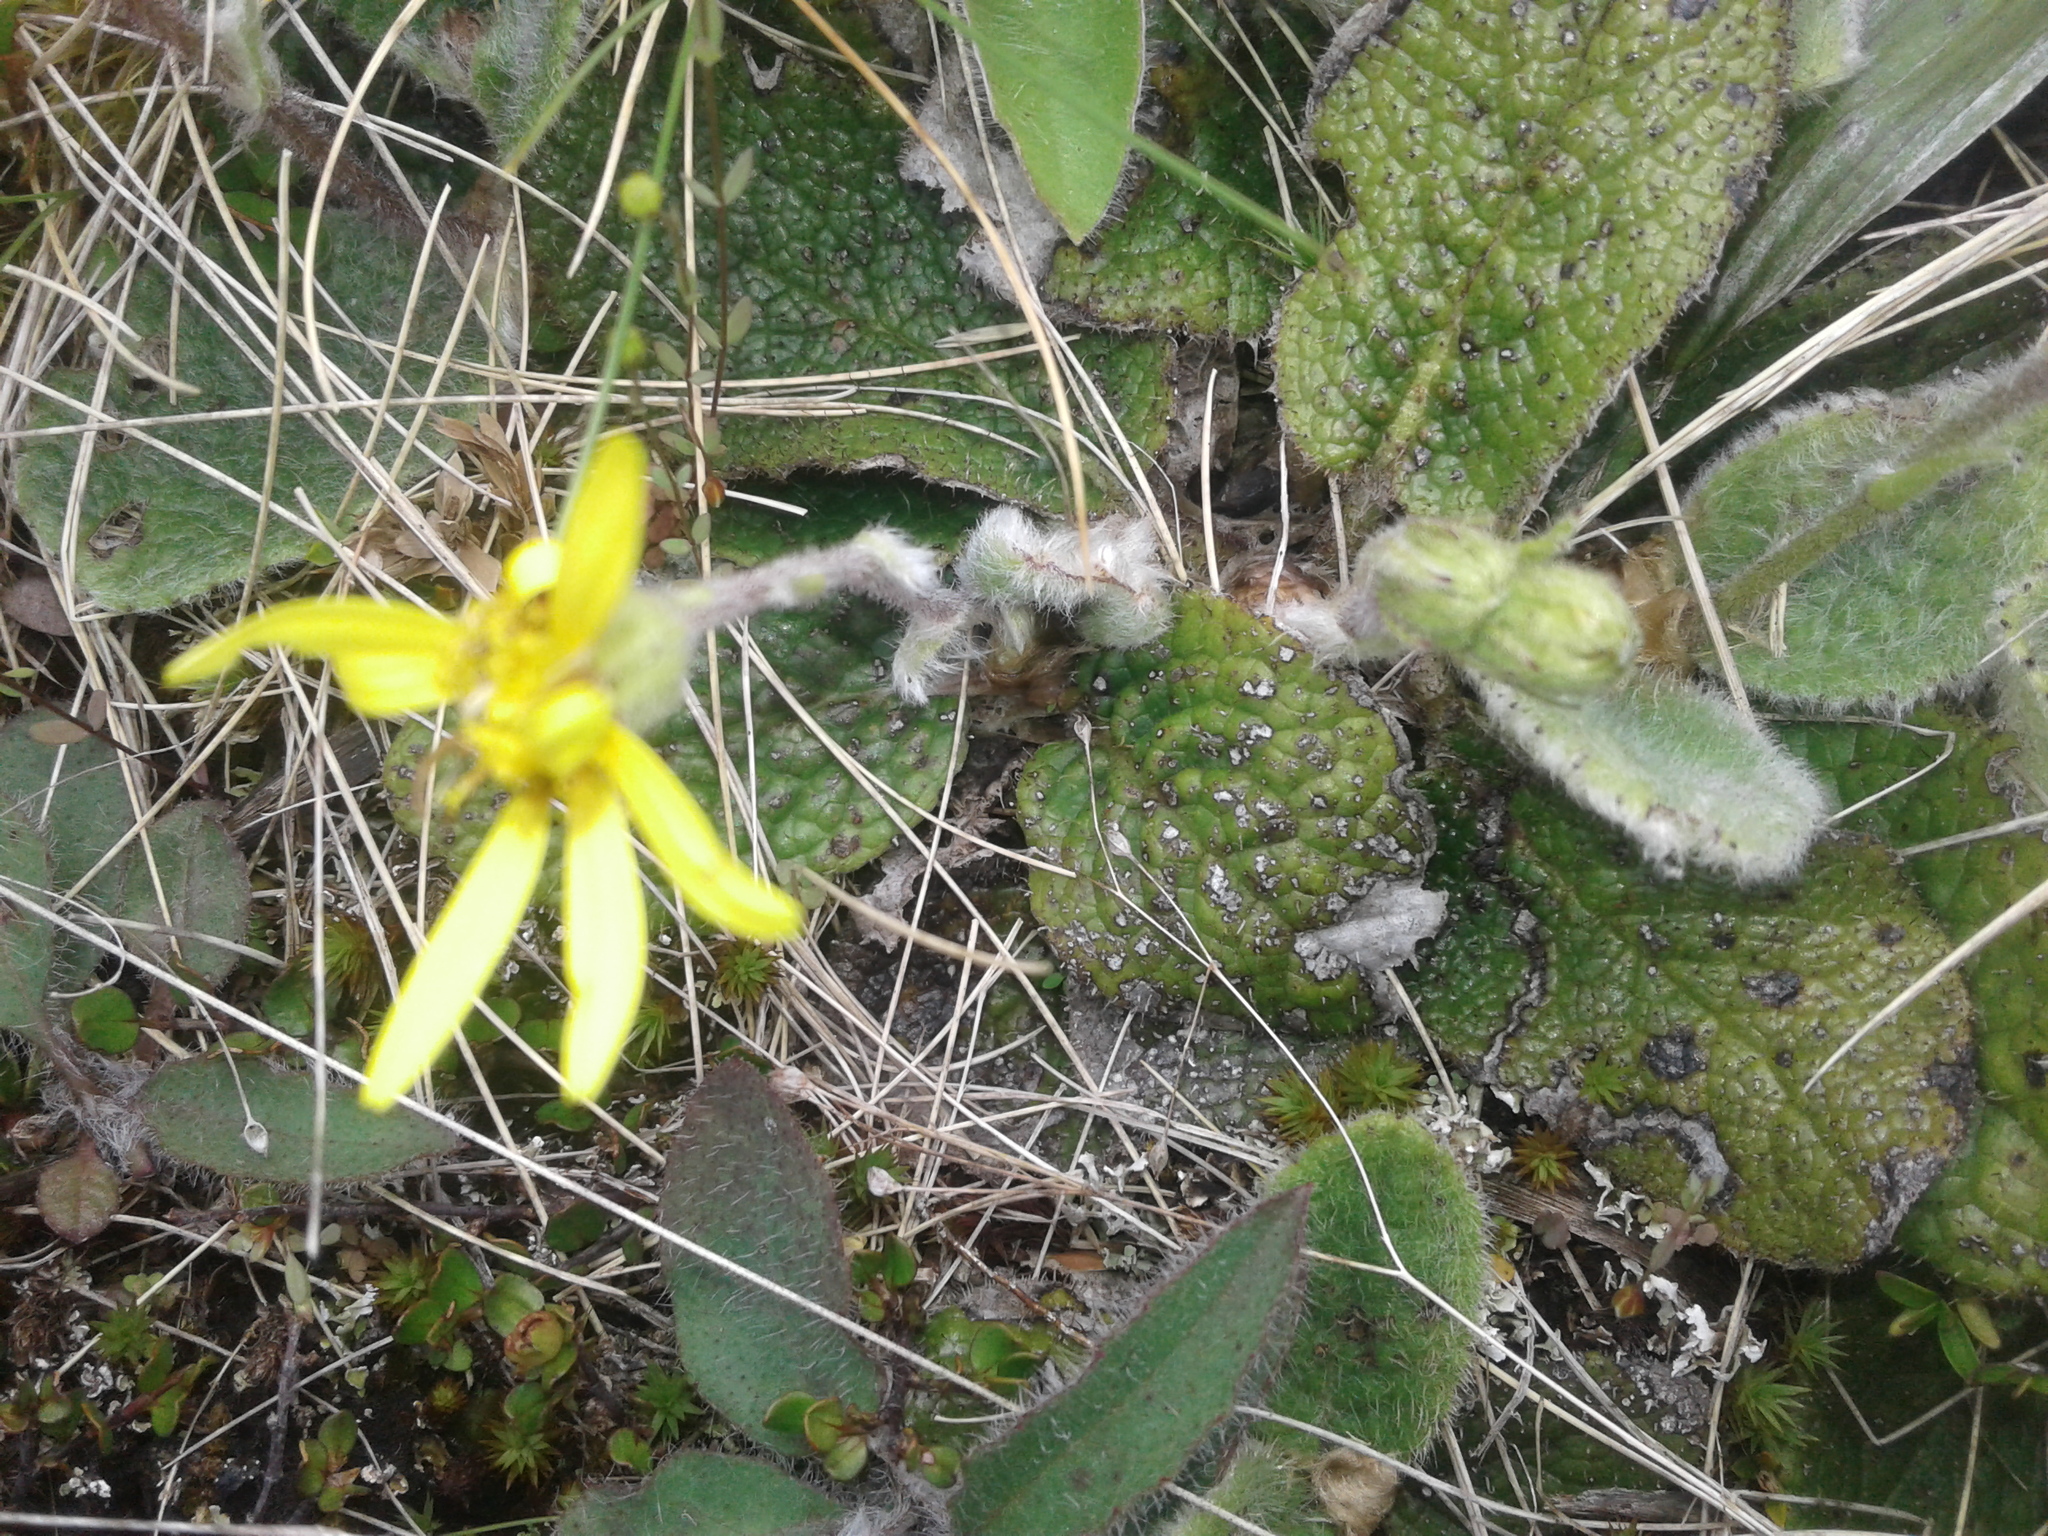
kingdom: Plantae
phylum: Tracheophyta
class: Magnoliopsida
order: Asterales
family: Asteraceae
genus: Brachyglottis
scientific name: Brachyglottis bellidioides
